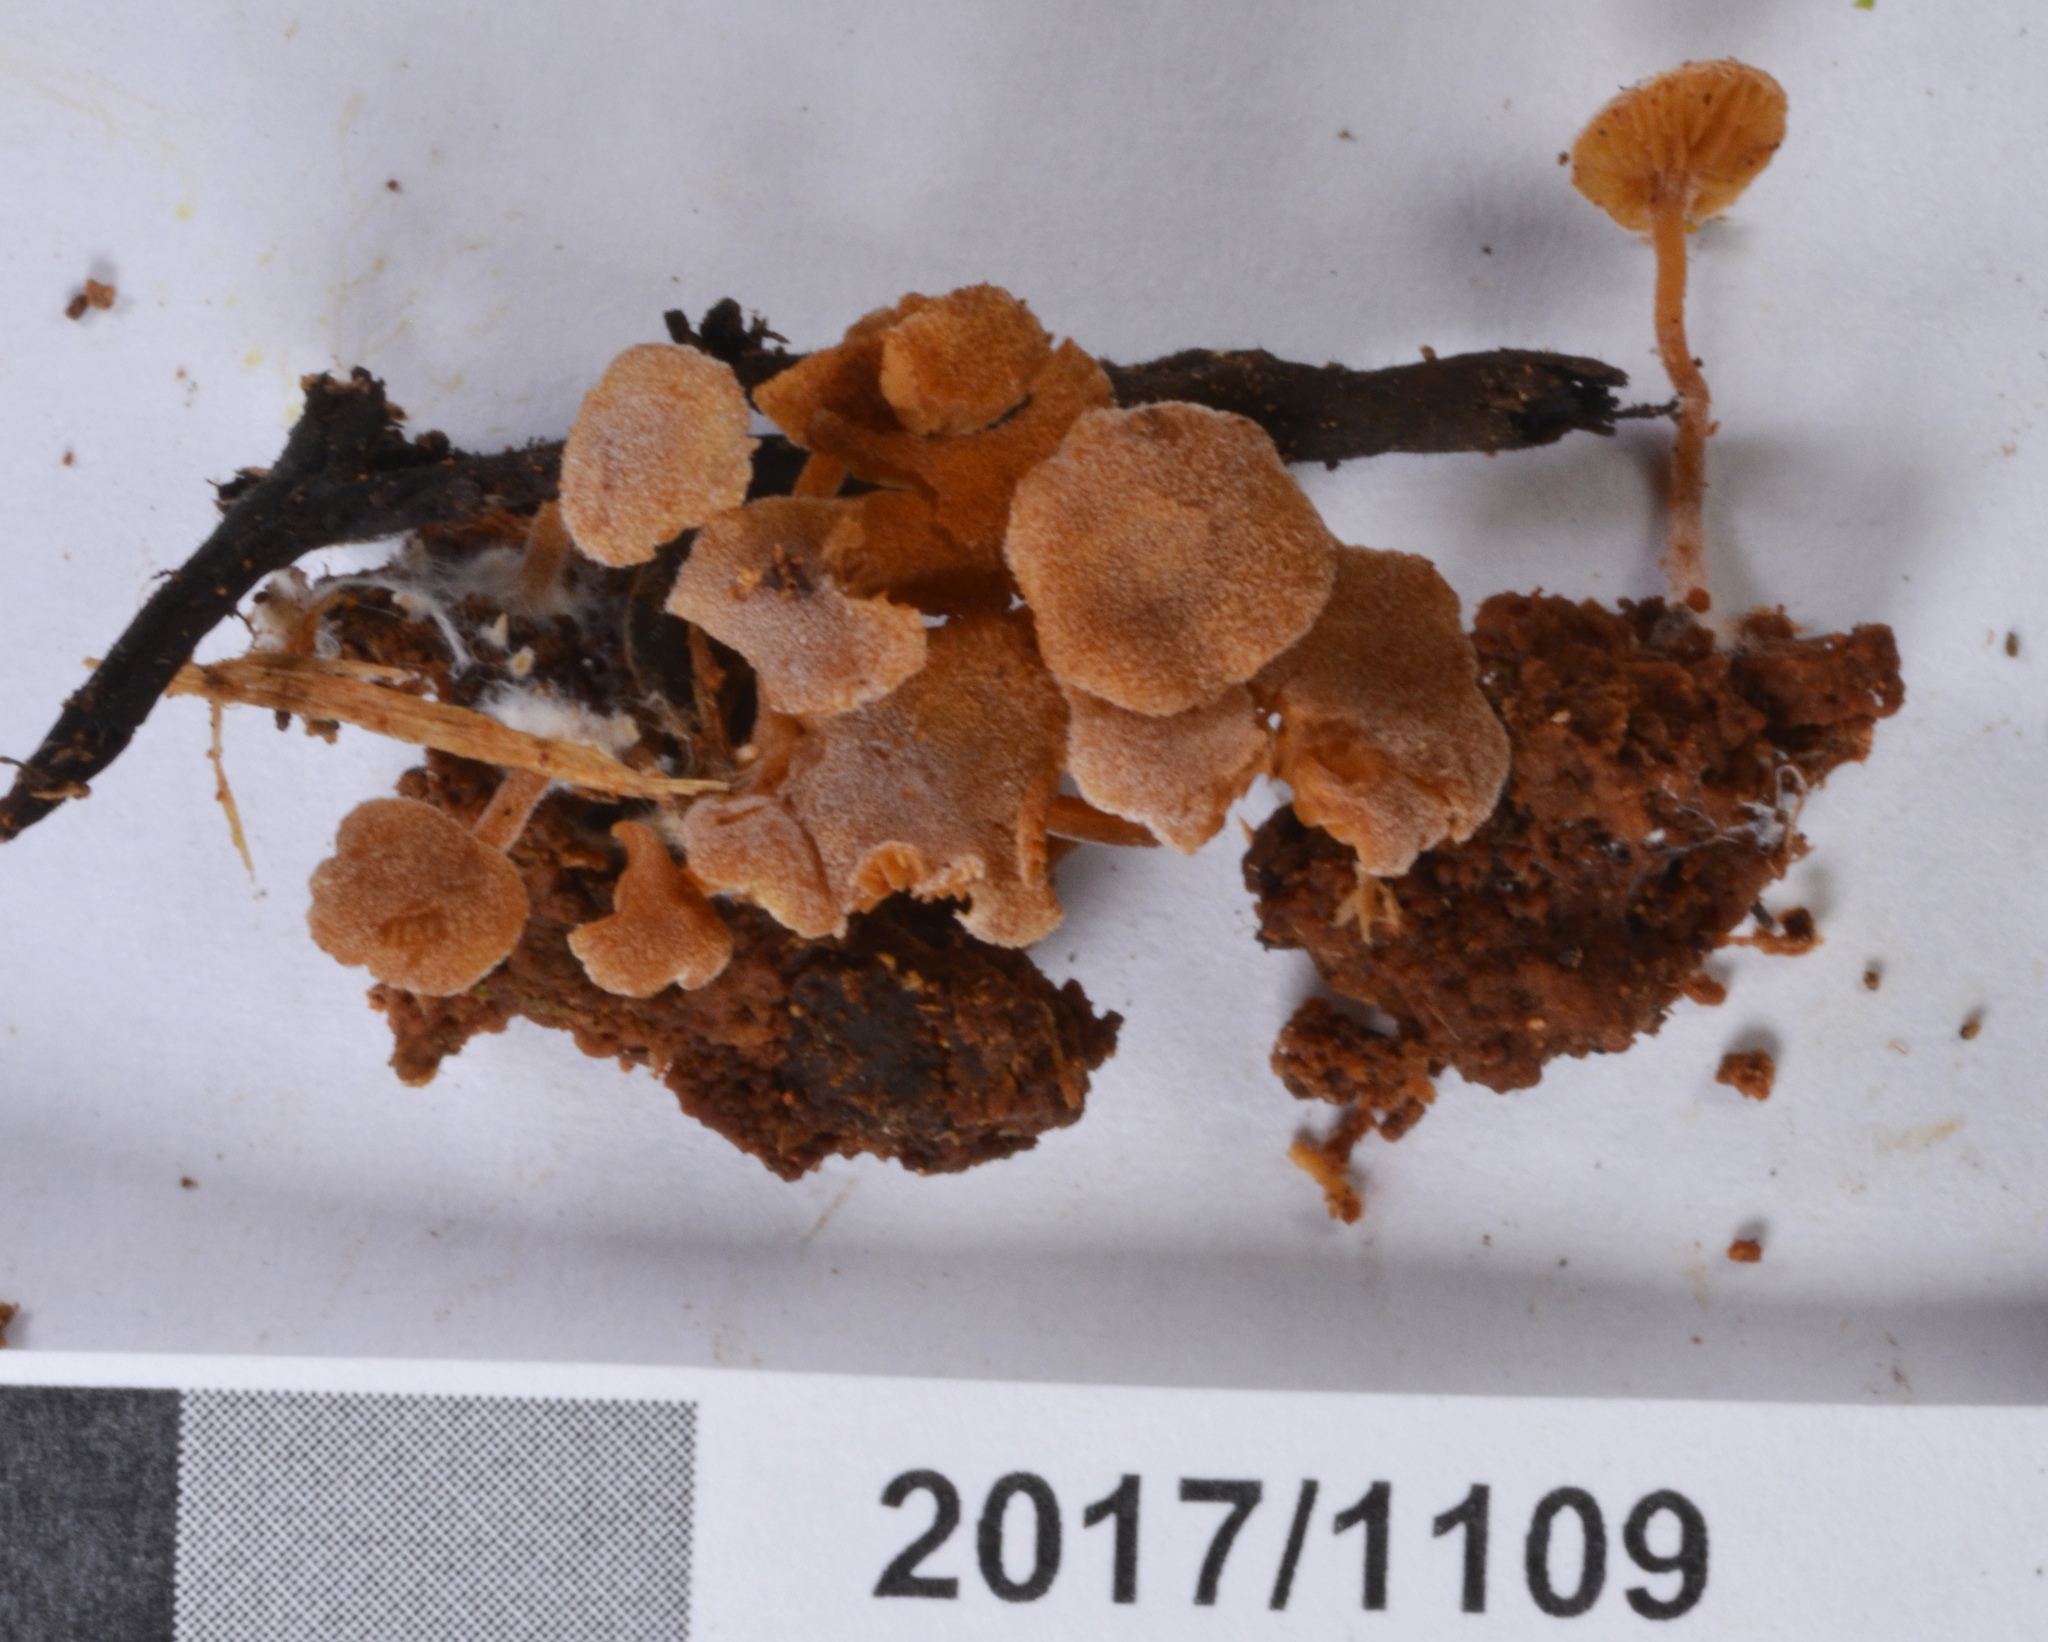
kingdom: Fungi
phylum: Basidiomycota
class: Agaricomycetes
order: Agaricales
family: Hymenogastraceae
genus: Galerina
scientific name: Galerina excentrica
